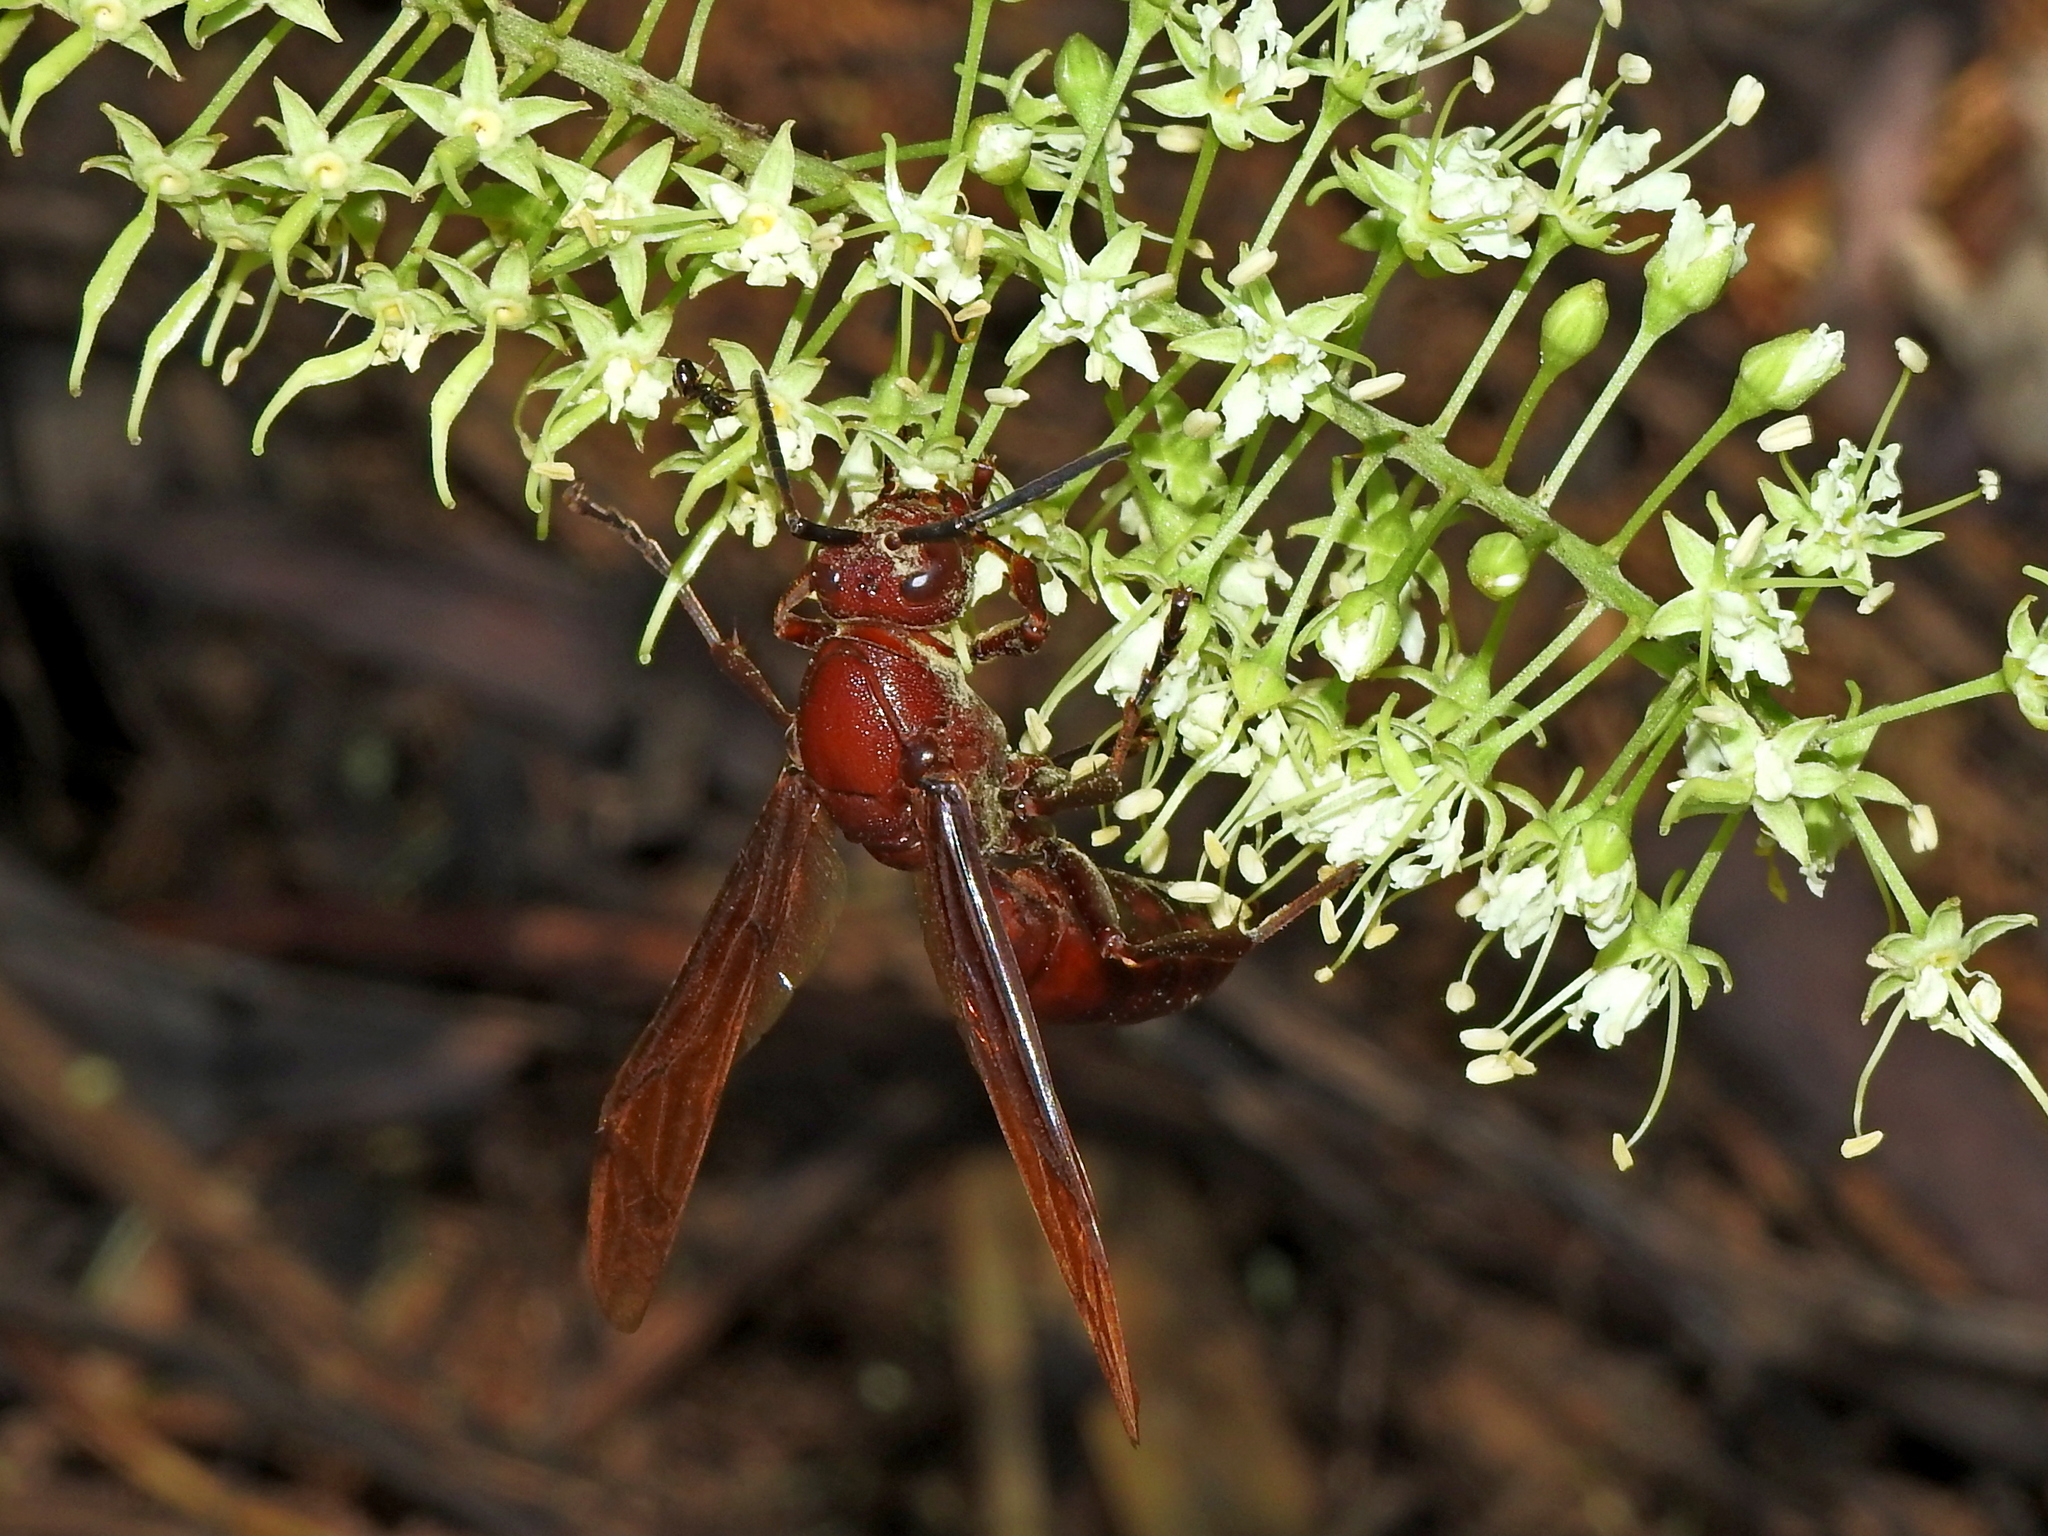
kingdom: Animalia
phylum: Arthropoda
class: Insecta
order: Hymenoptera
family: Eumenidae
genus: Polistes
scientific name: Polistes gigas
